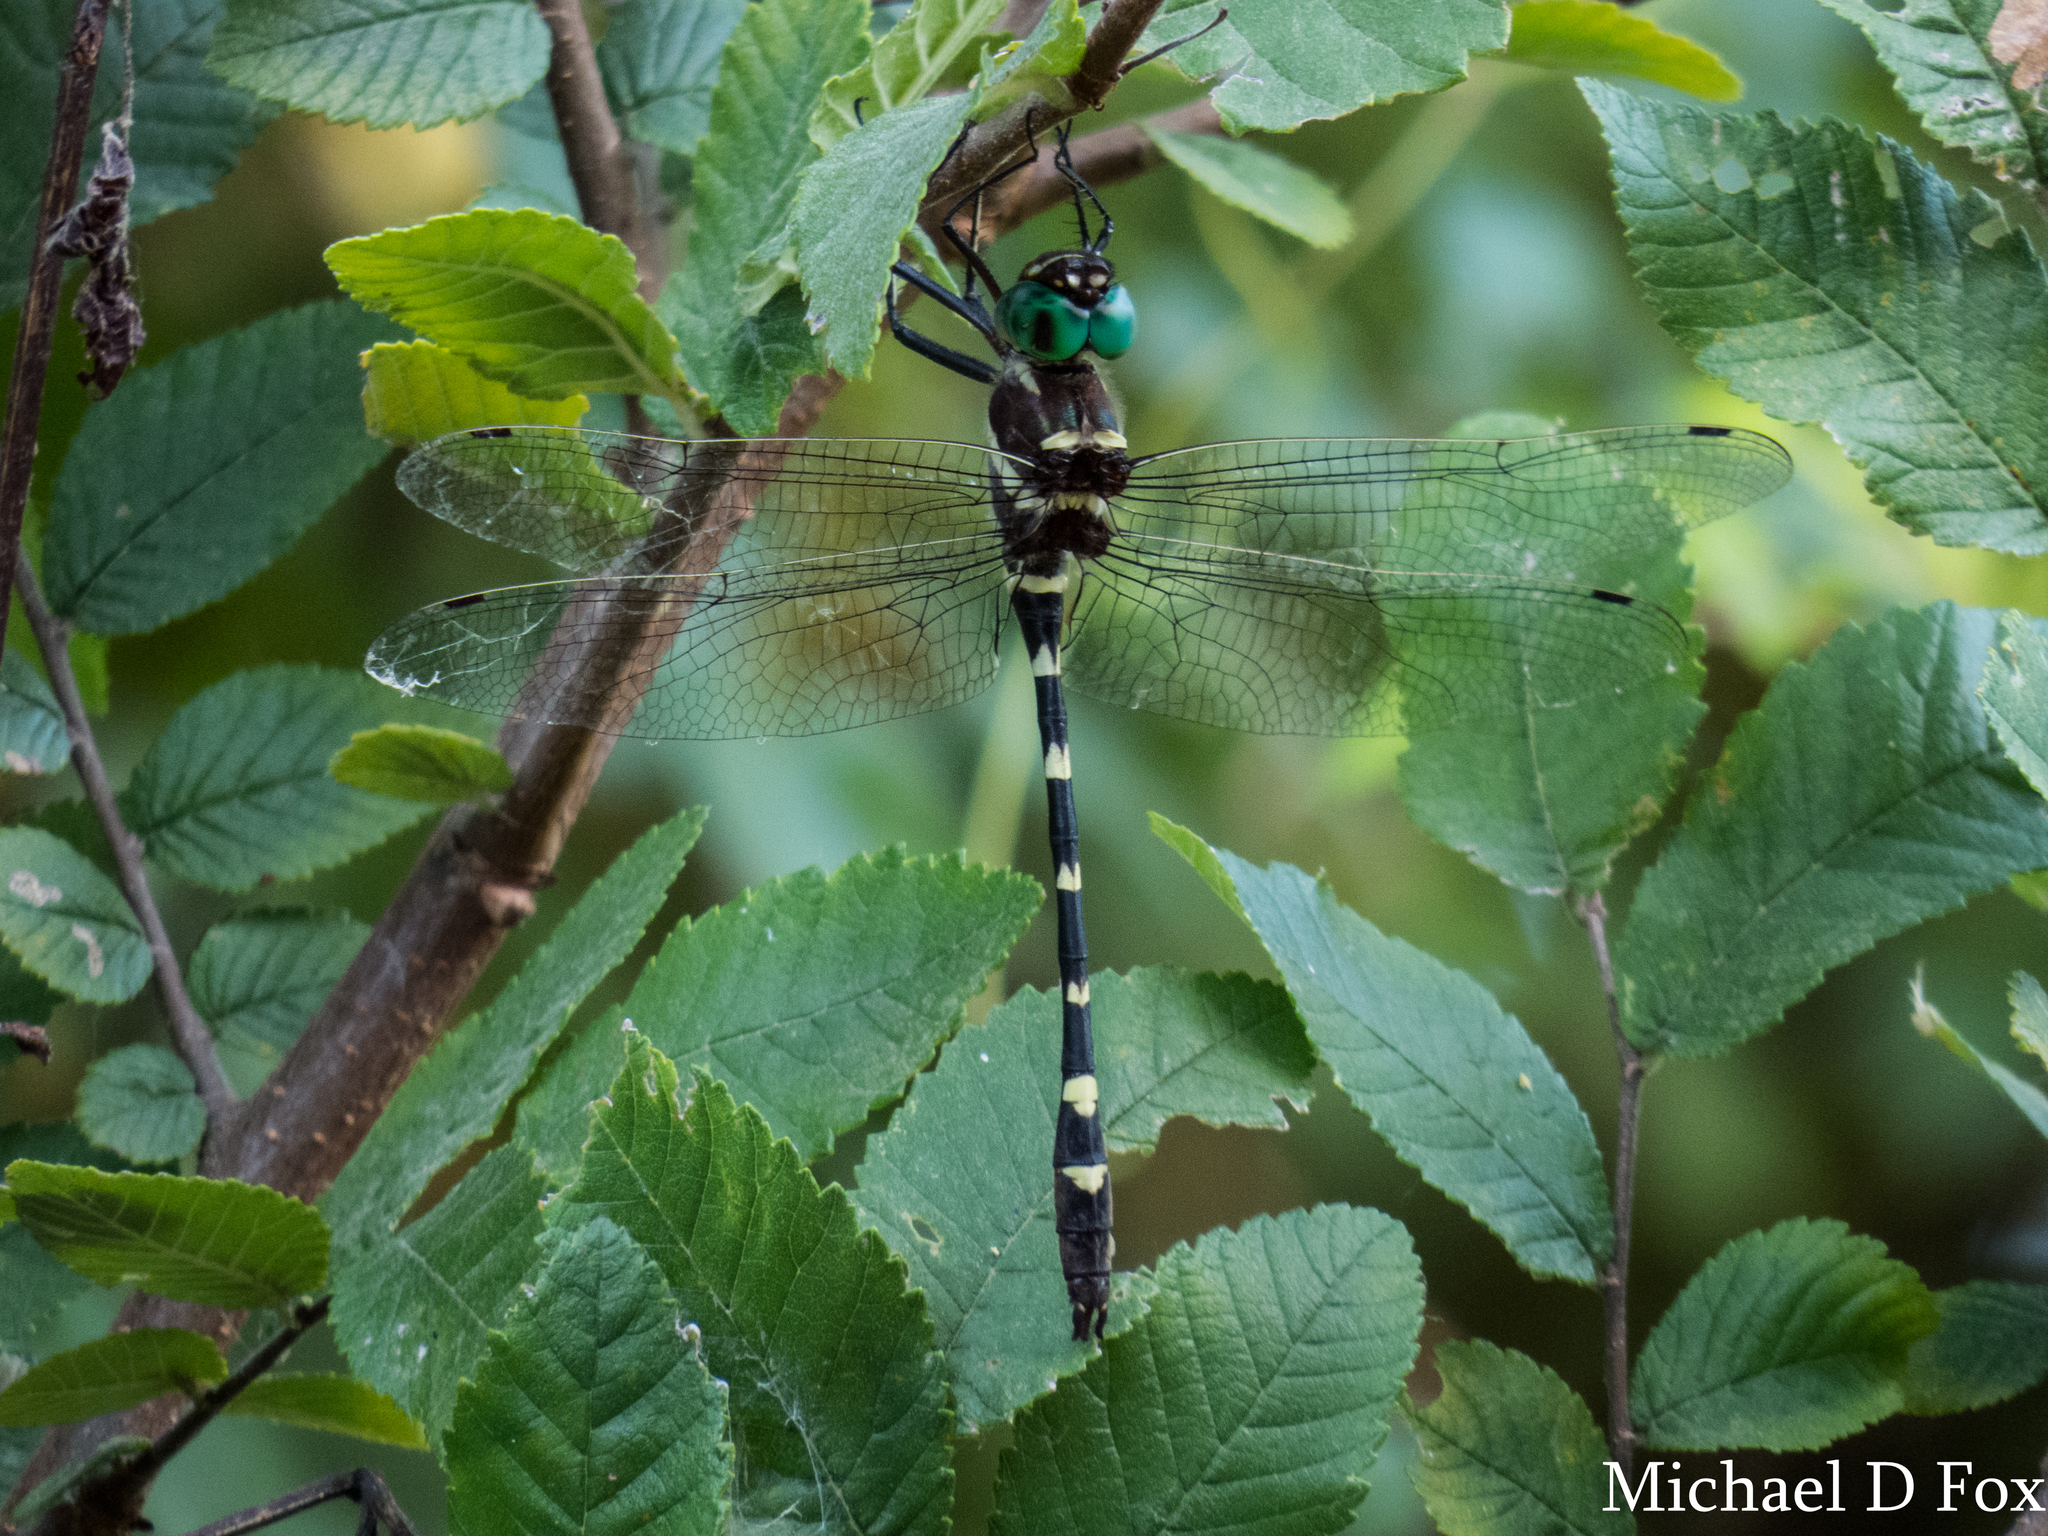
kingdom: Animalia
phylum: Arthropoda
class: Insecta
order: Odonata
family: Macromiidae
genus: Macromia
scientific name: Macromia illinoiensis
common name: Swift river cruiser
